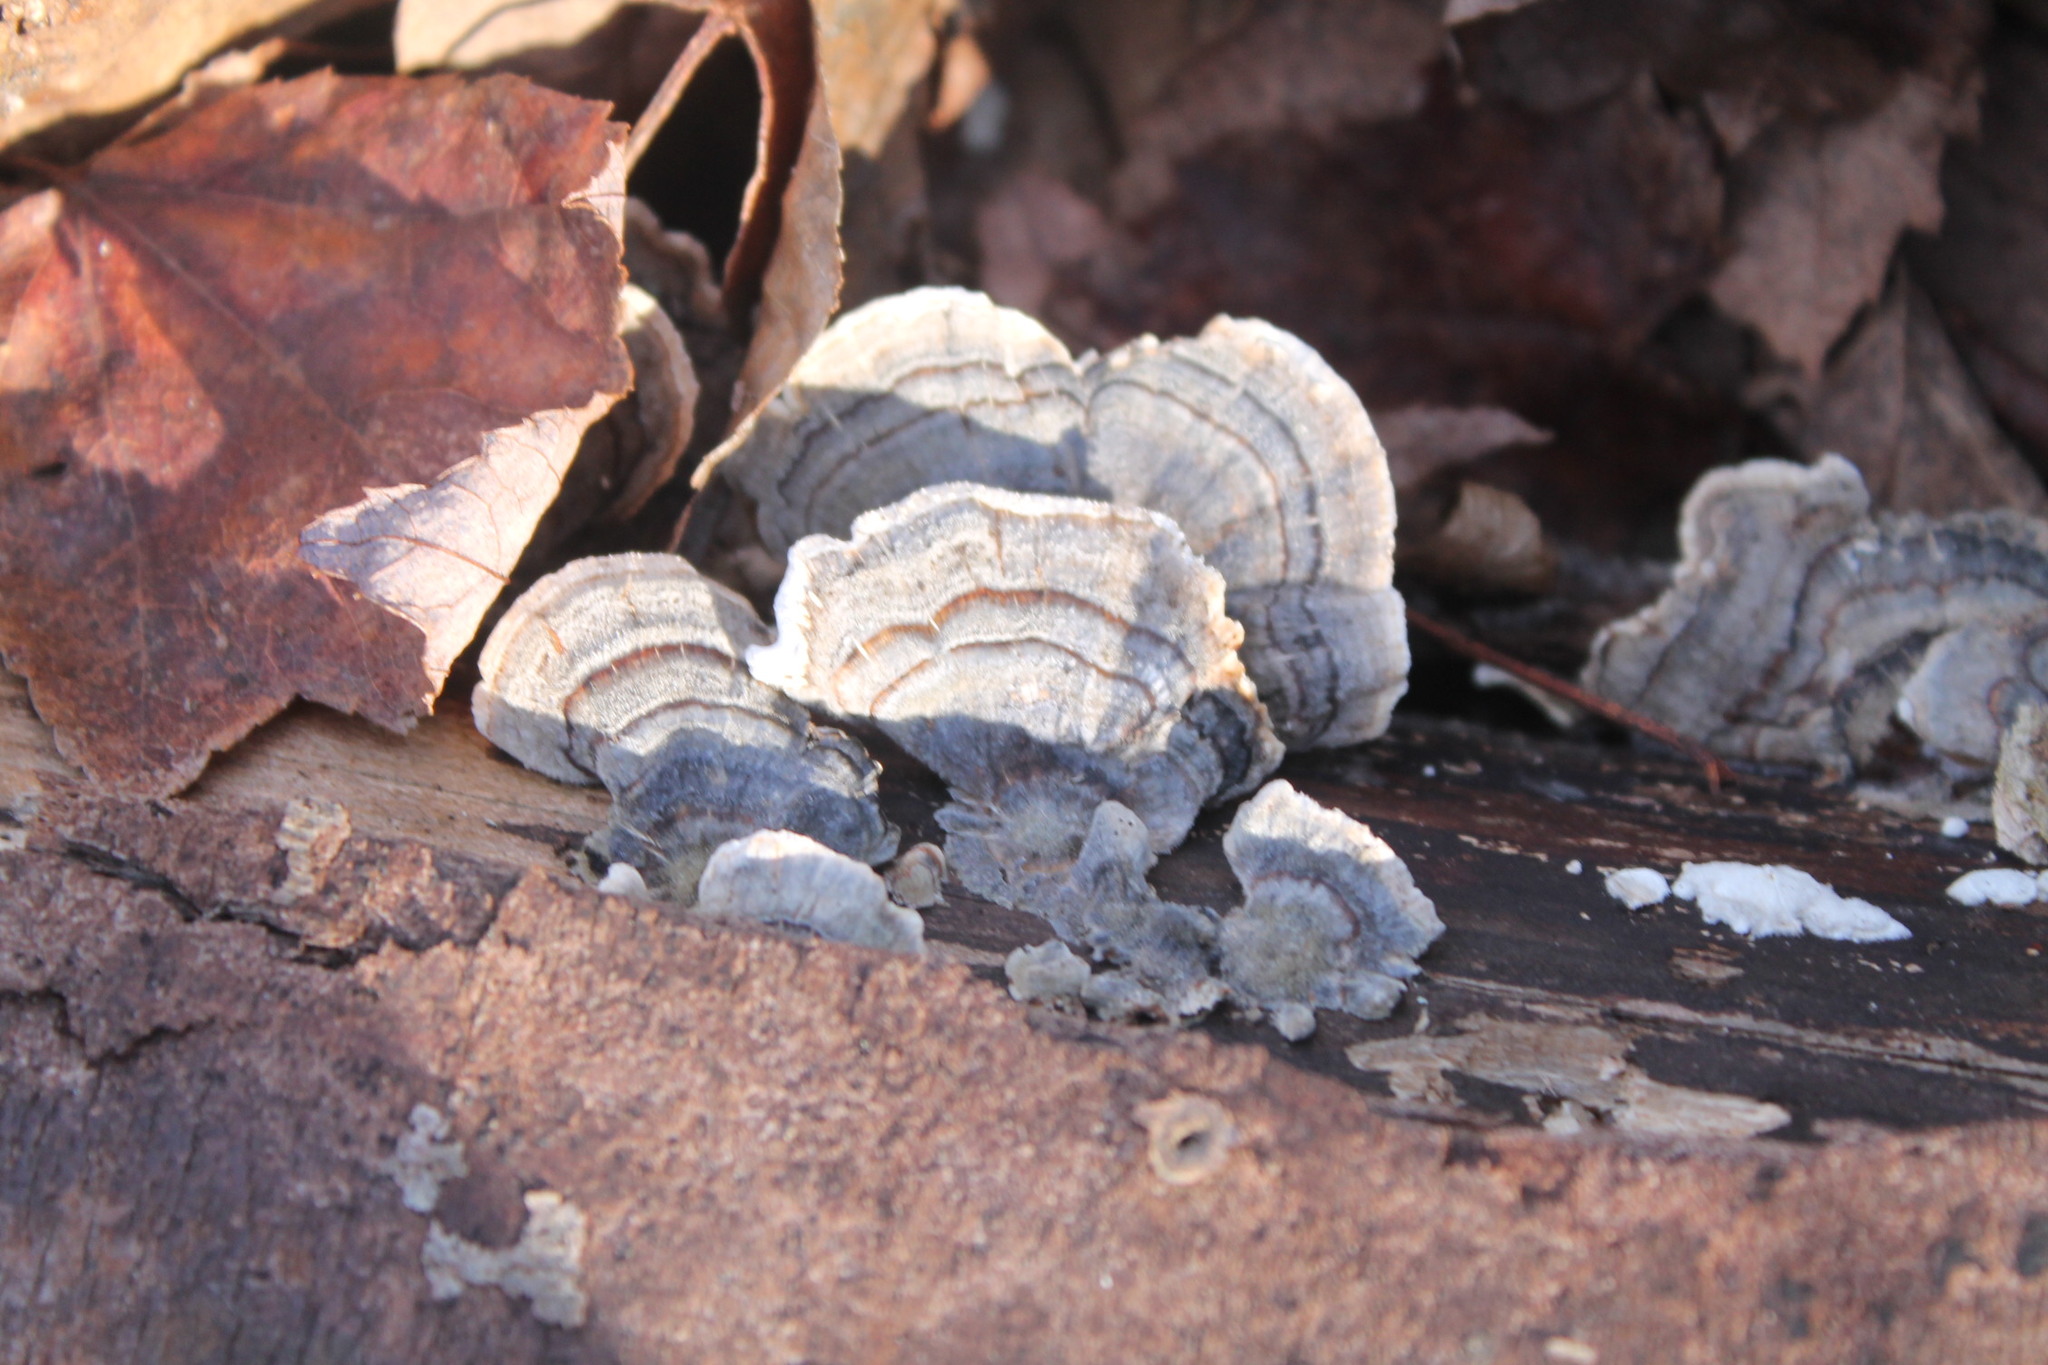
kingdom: Fungi
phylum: Basidiomycota
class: Agaricomycetes
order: Polyporales
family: Polyporaceae
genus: Trametes
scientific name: Trametes versicolor
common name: Turkeytail
